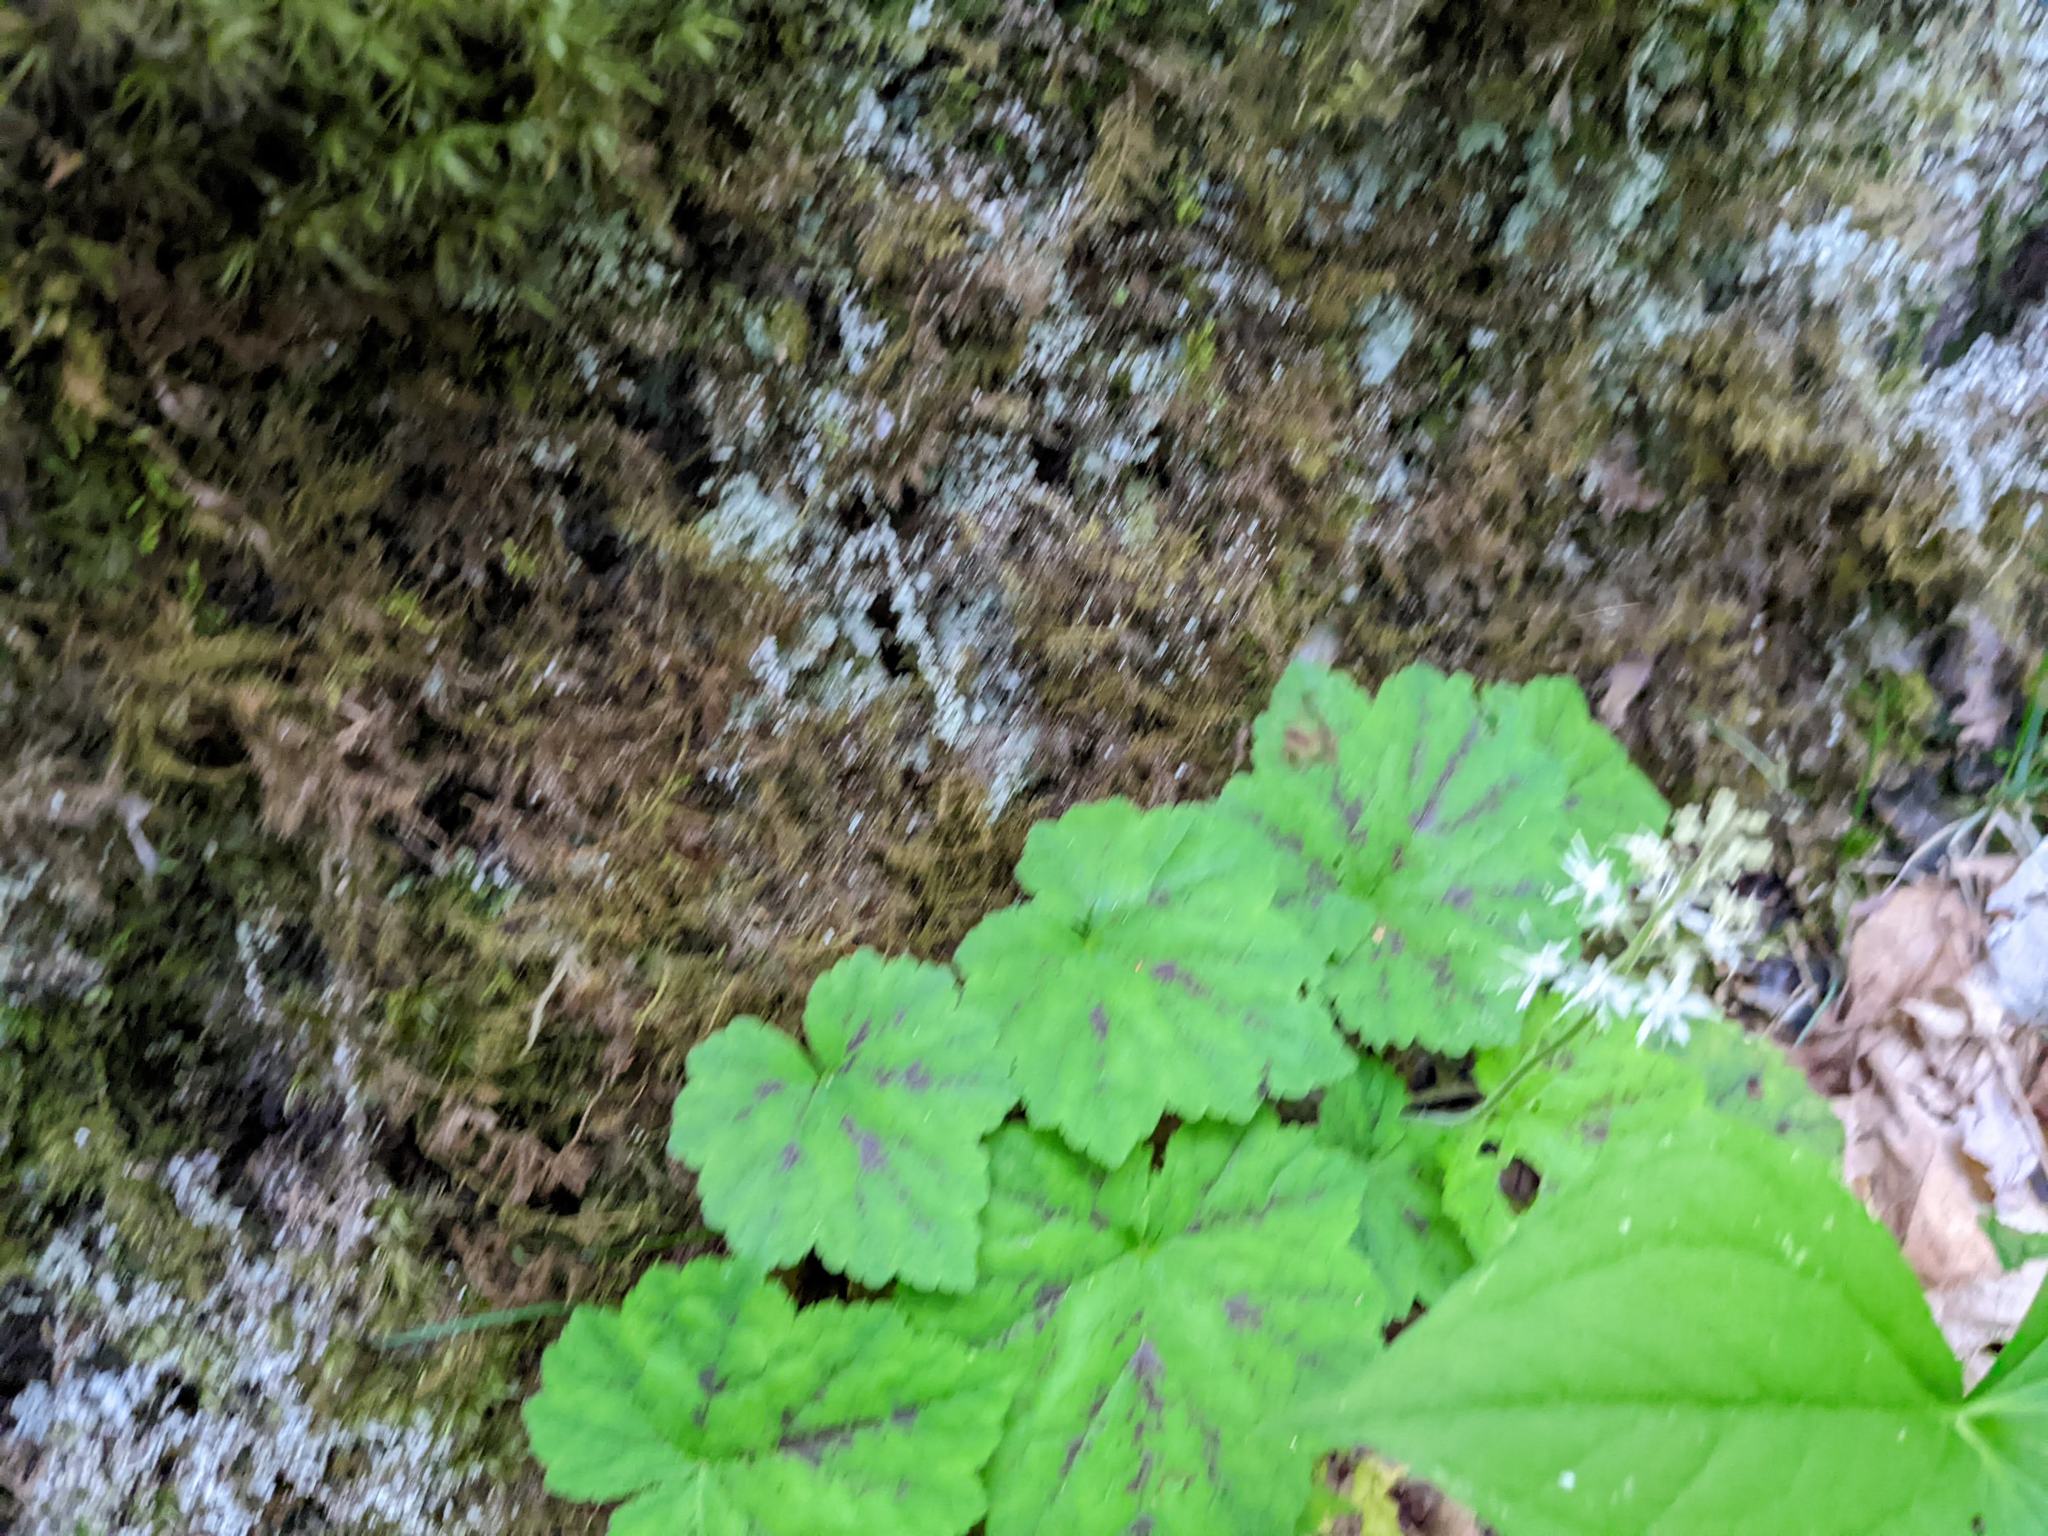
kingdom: Plantae
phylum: Tracheophyta
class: Magnoliopsida
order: Saxifragales
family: Saxifragaceae
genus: Tiarella
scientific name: Tiarella stolonifera
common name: Stoloniferous foamflower
